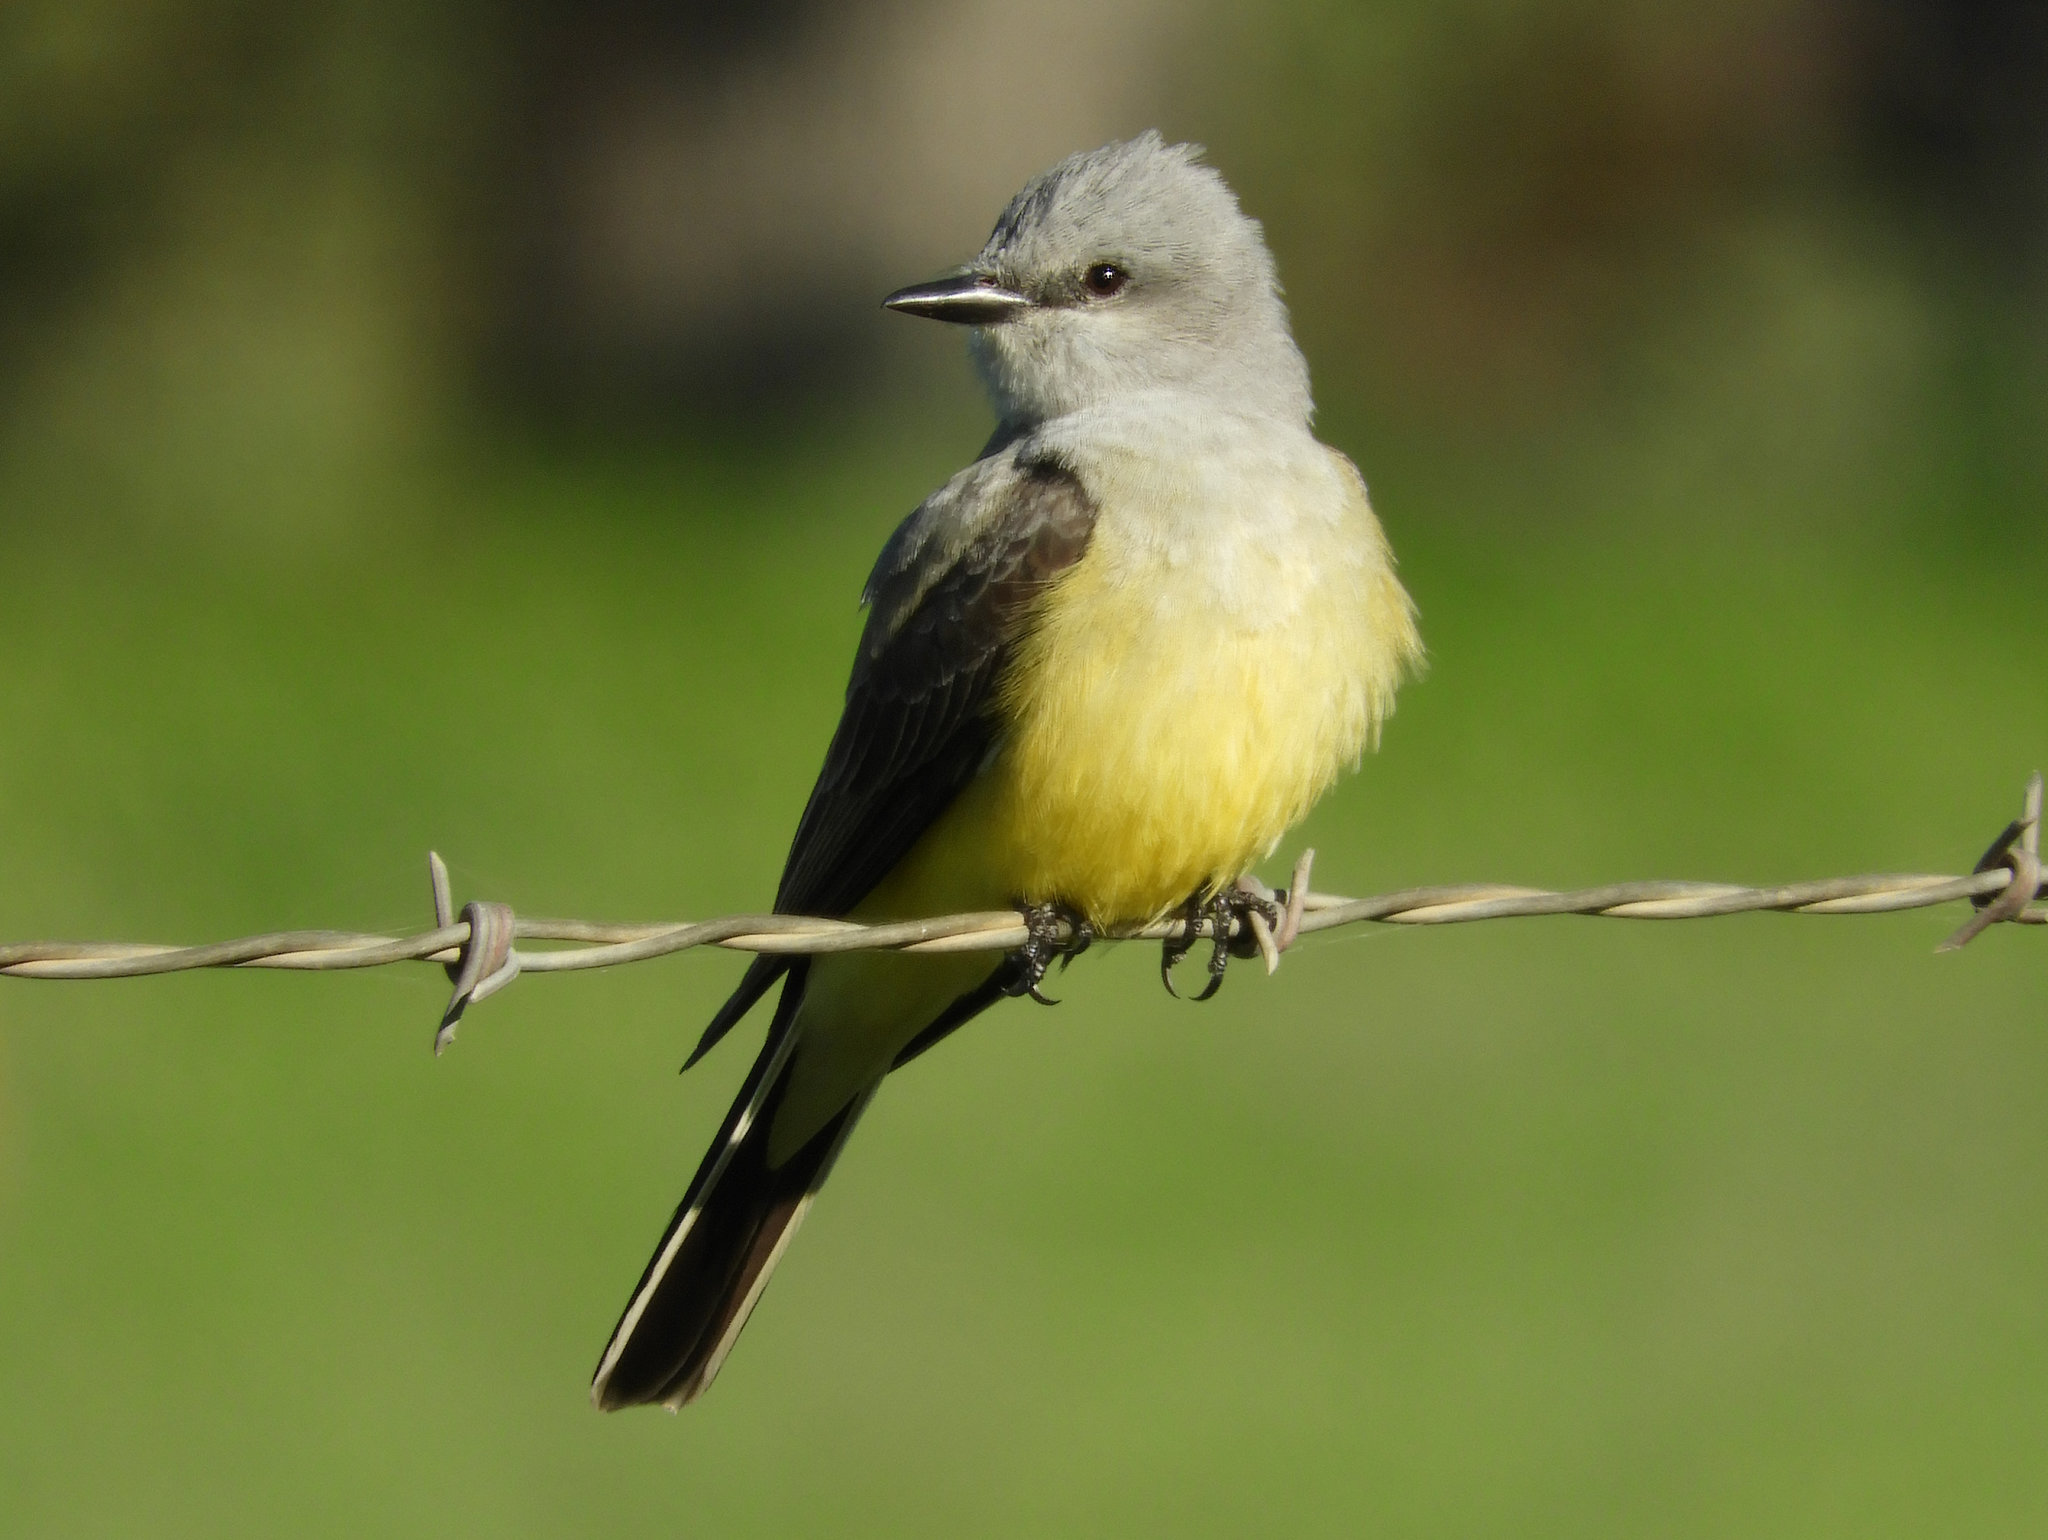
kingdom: Animalia
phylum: Chordata
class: Aves
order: Passeriformes
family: Tyrannidae
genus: Tyrannus
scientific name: Tyrannus verticalis
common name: Western kingbird
